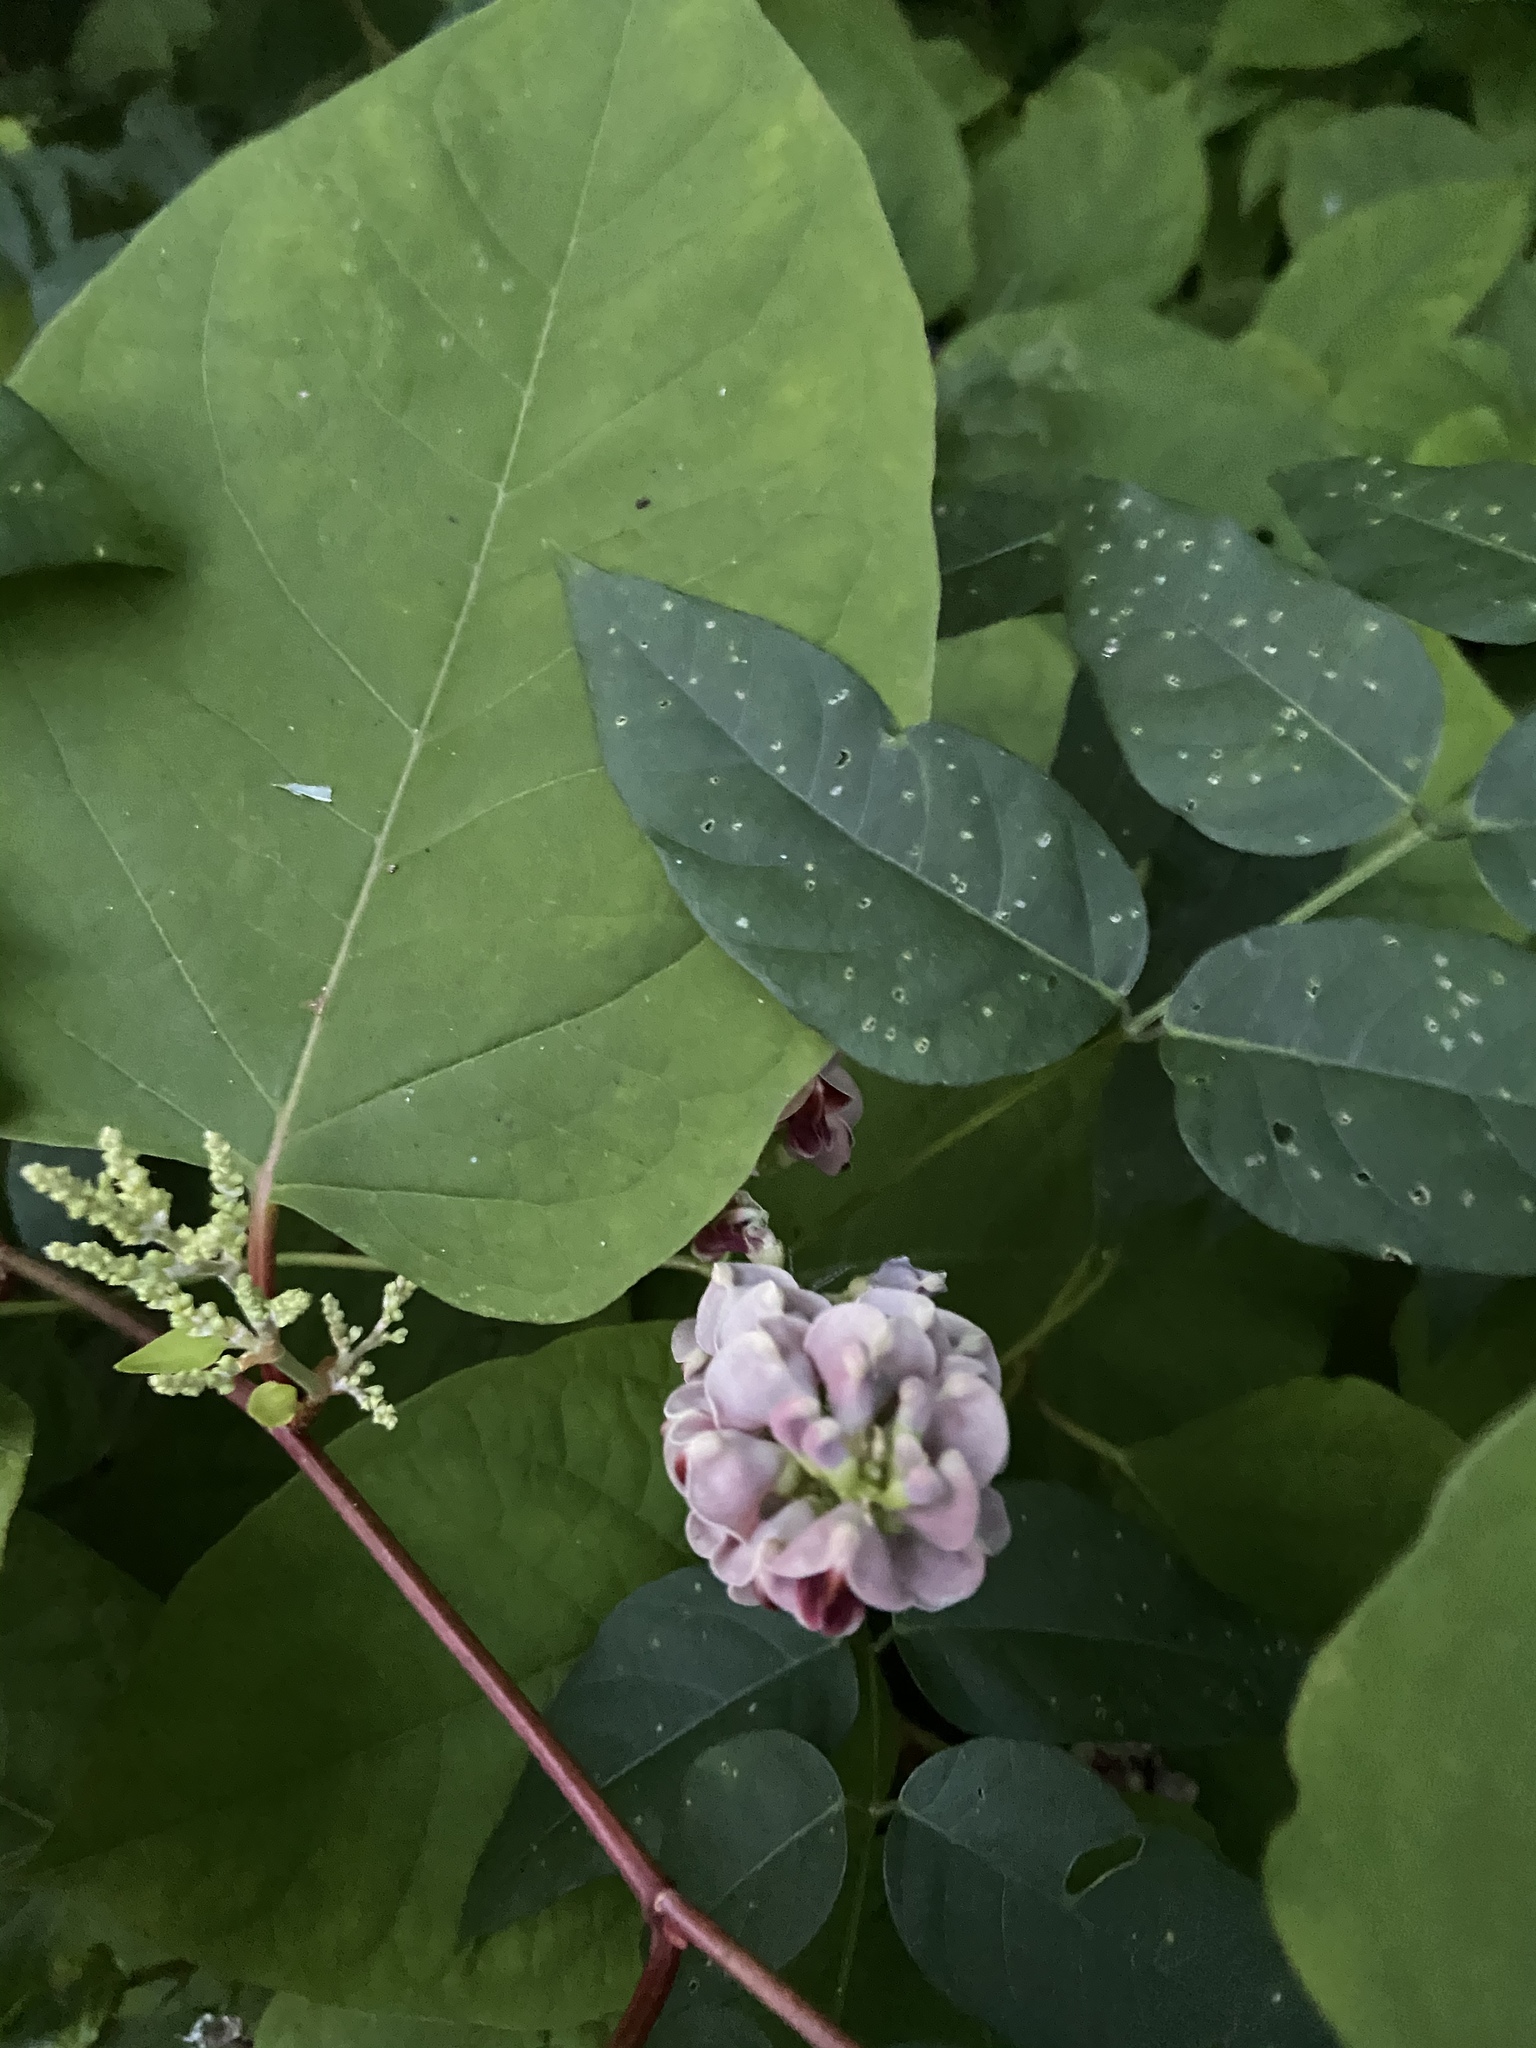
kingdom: Plantae
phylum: Tracheophyta
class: Magnoliopsida
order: Fabales
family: Fabaceae
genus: Apios
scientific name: Apios americana
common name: American potato-bean
